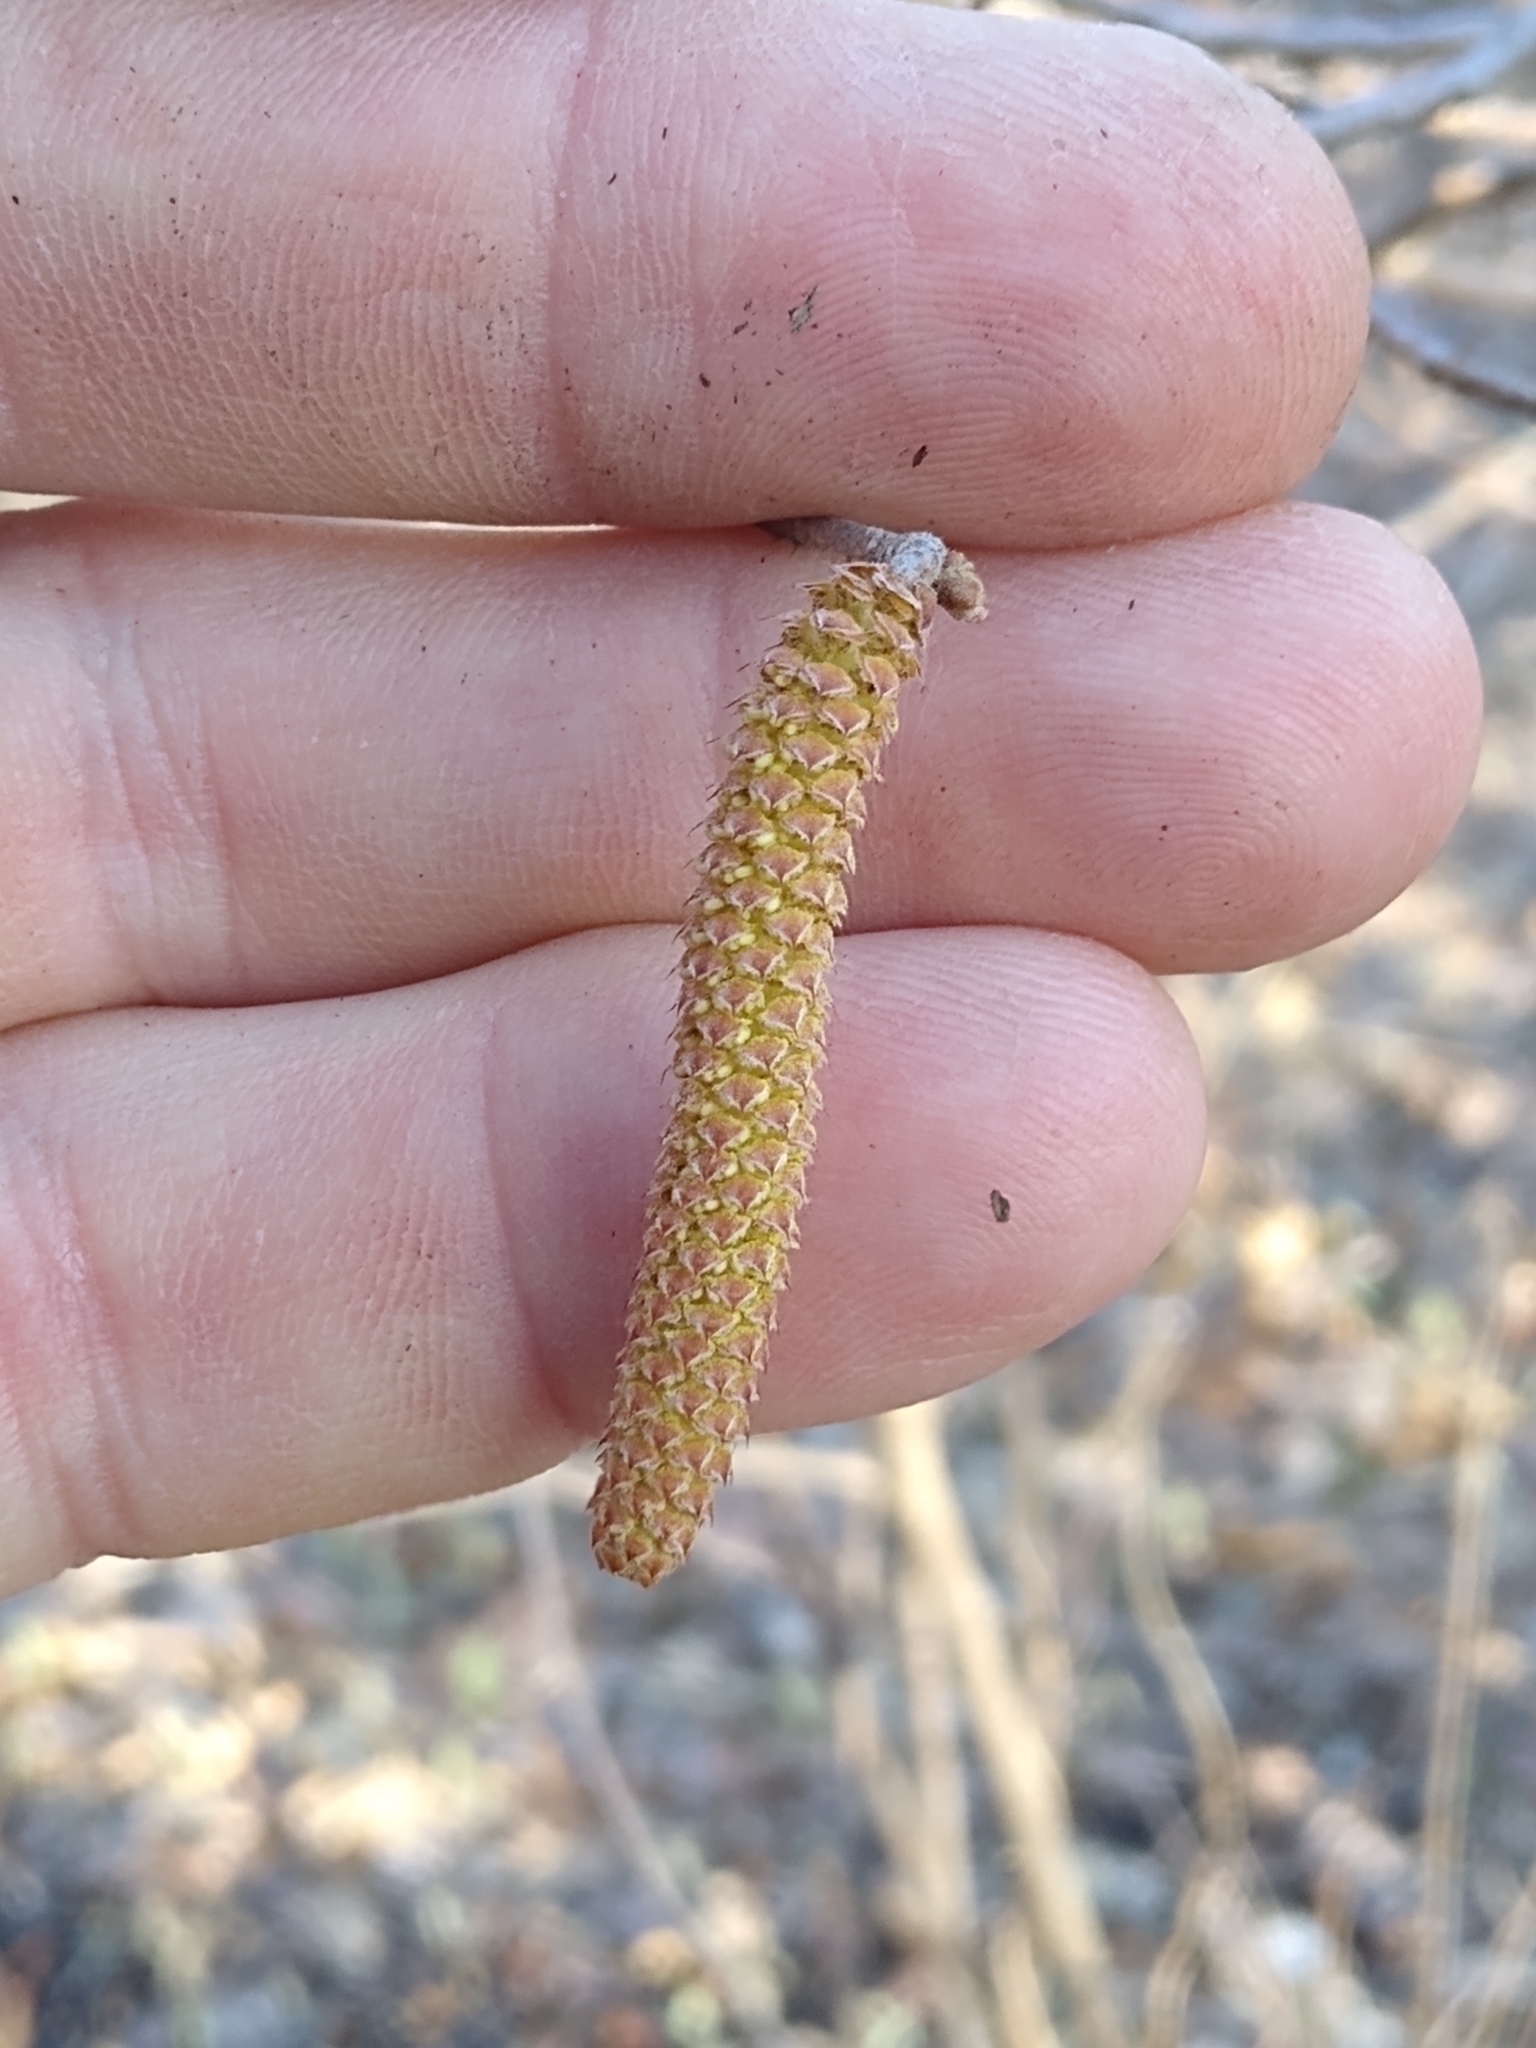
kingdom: Plantae
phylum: Tracheophyta
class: Magnoliopsida
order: Fagales
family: Betulaceae
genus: Corylus
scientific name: Corylus americana
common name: American hazel
